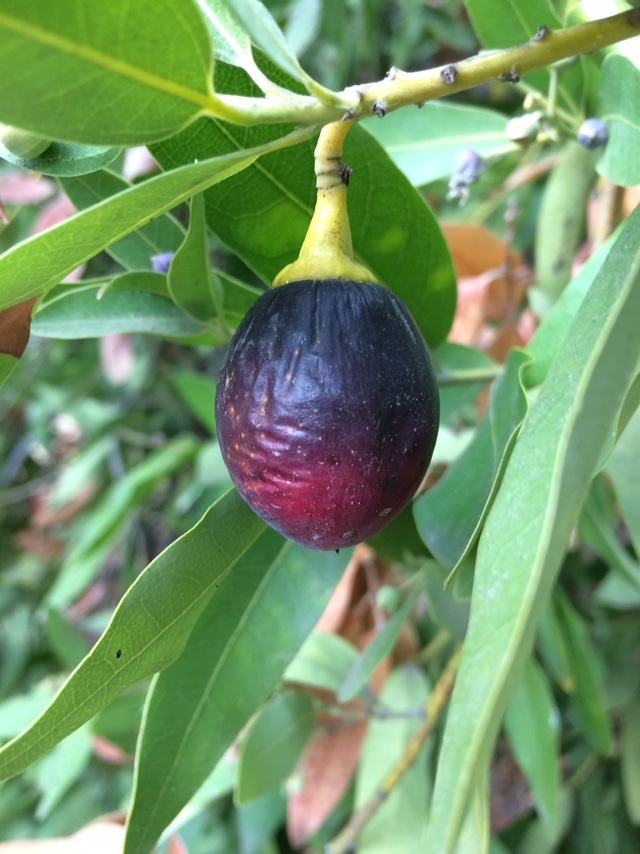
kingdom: Plantae
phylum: Tracheophyta
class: Magnoliopsida
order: Laurales
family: Lauraceae
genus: Umbellularia
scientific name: Umbellularia californica
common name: California bay
